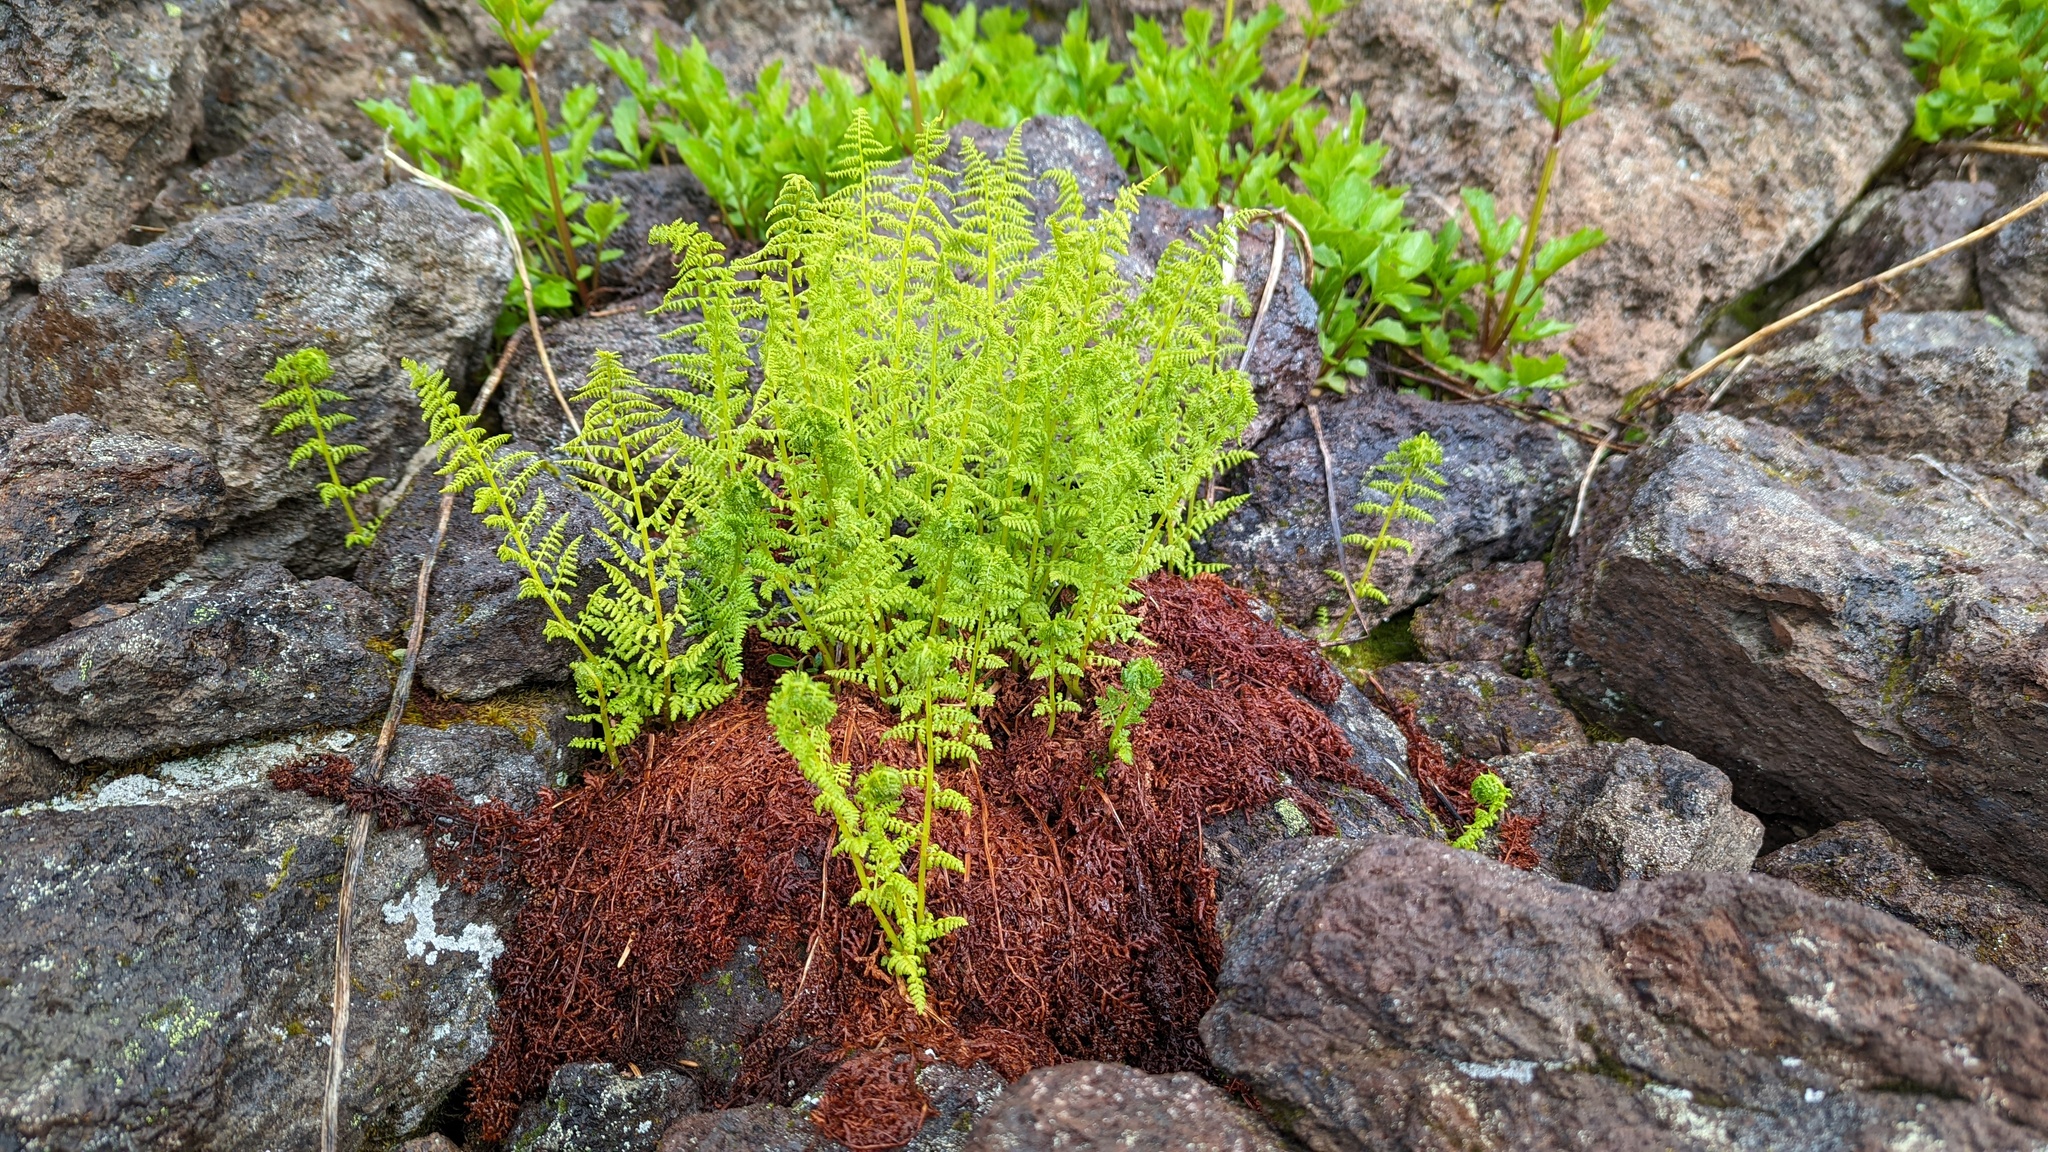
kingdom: Plantae
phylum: Tracheophyta
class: Polypodiopsida
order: Polypodiales
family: Athyriaceae
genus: Athyrium
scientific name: Athyrium americanum
